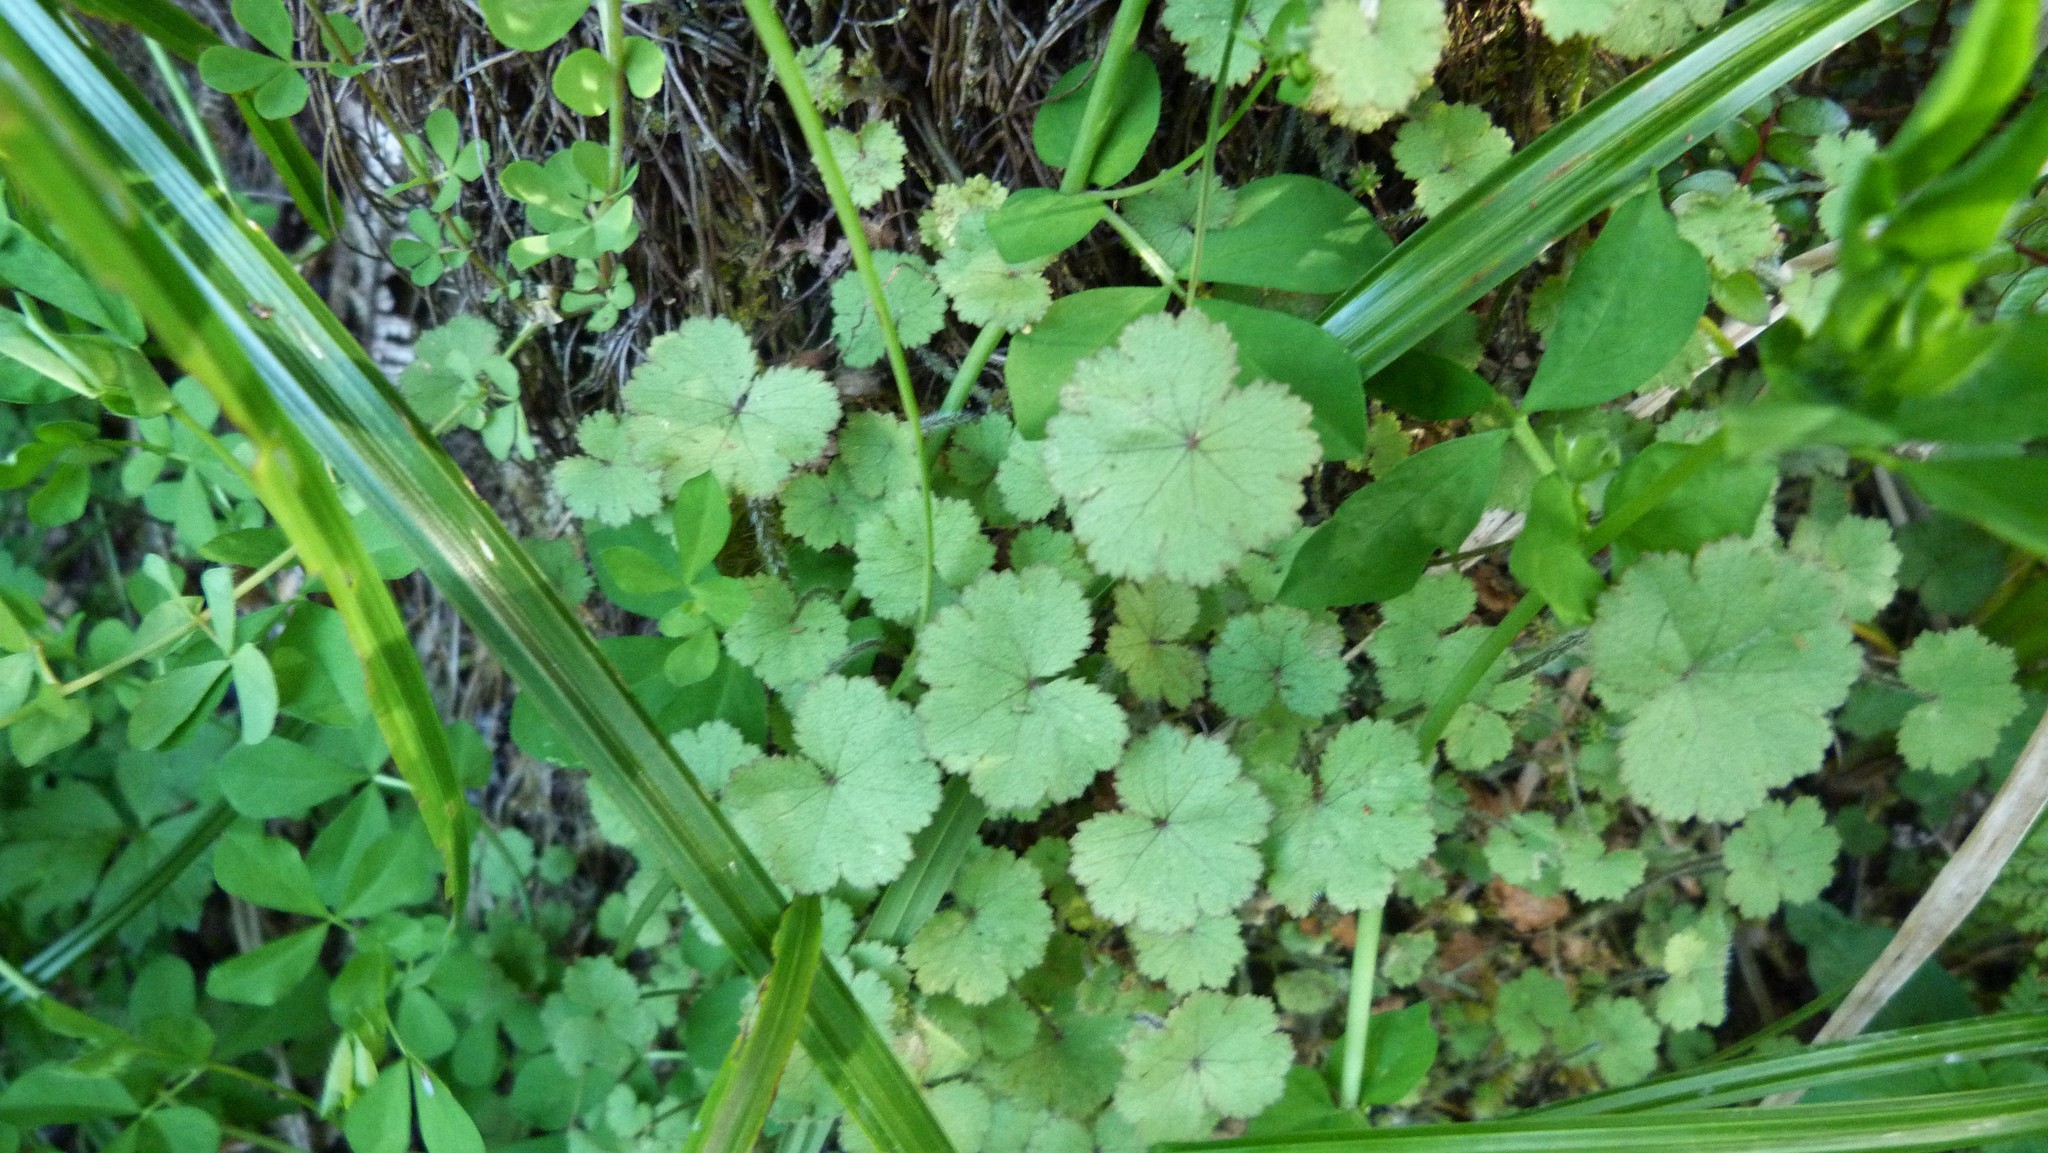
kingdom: Plantae
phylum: Tracheophyta
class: Magnoliopsida
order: Apiales
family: Araliaceae
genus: Hydrocotyle
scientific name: Hydrocotyle moschata
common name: Hairy pennywort
